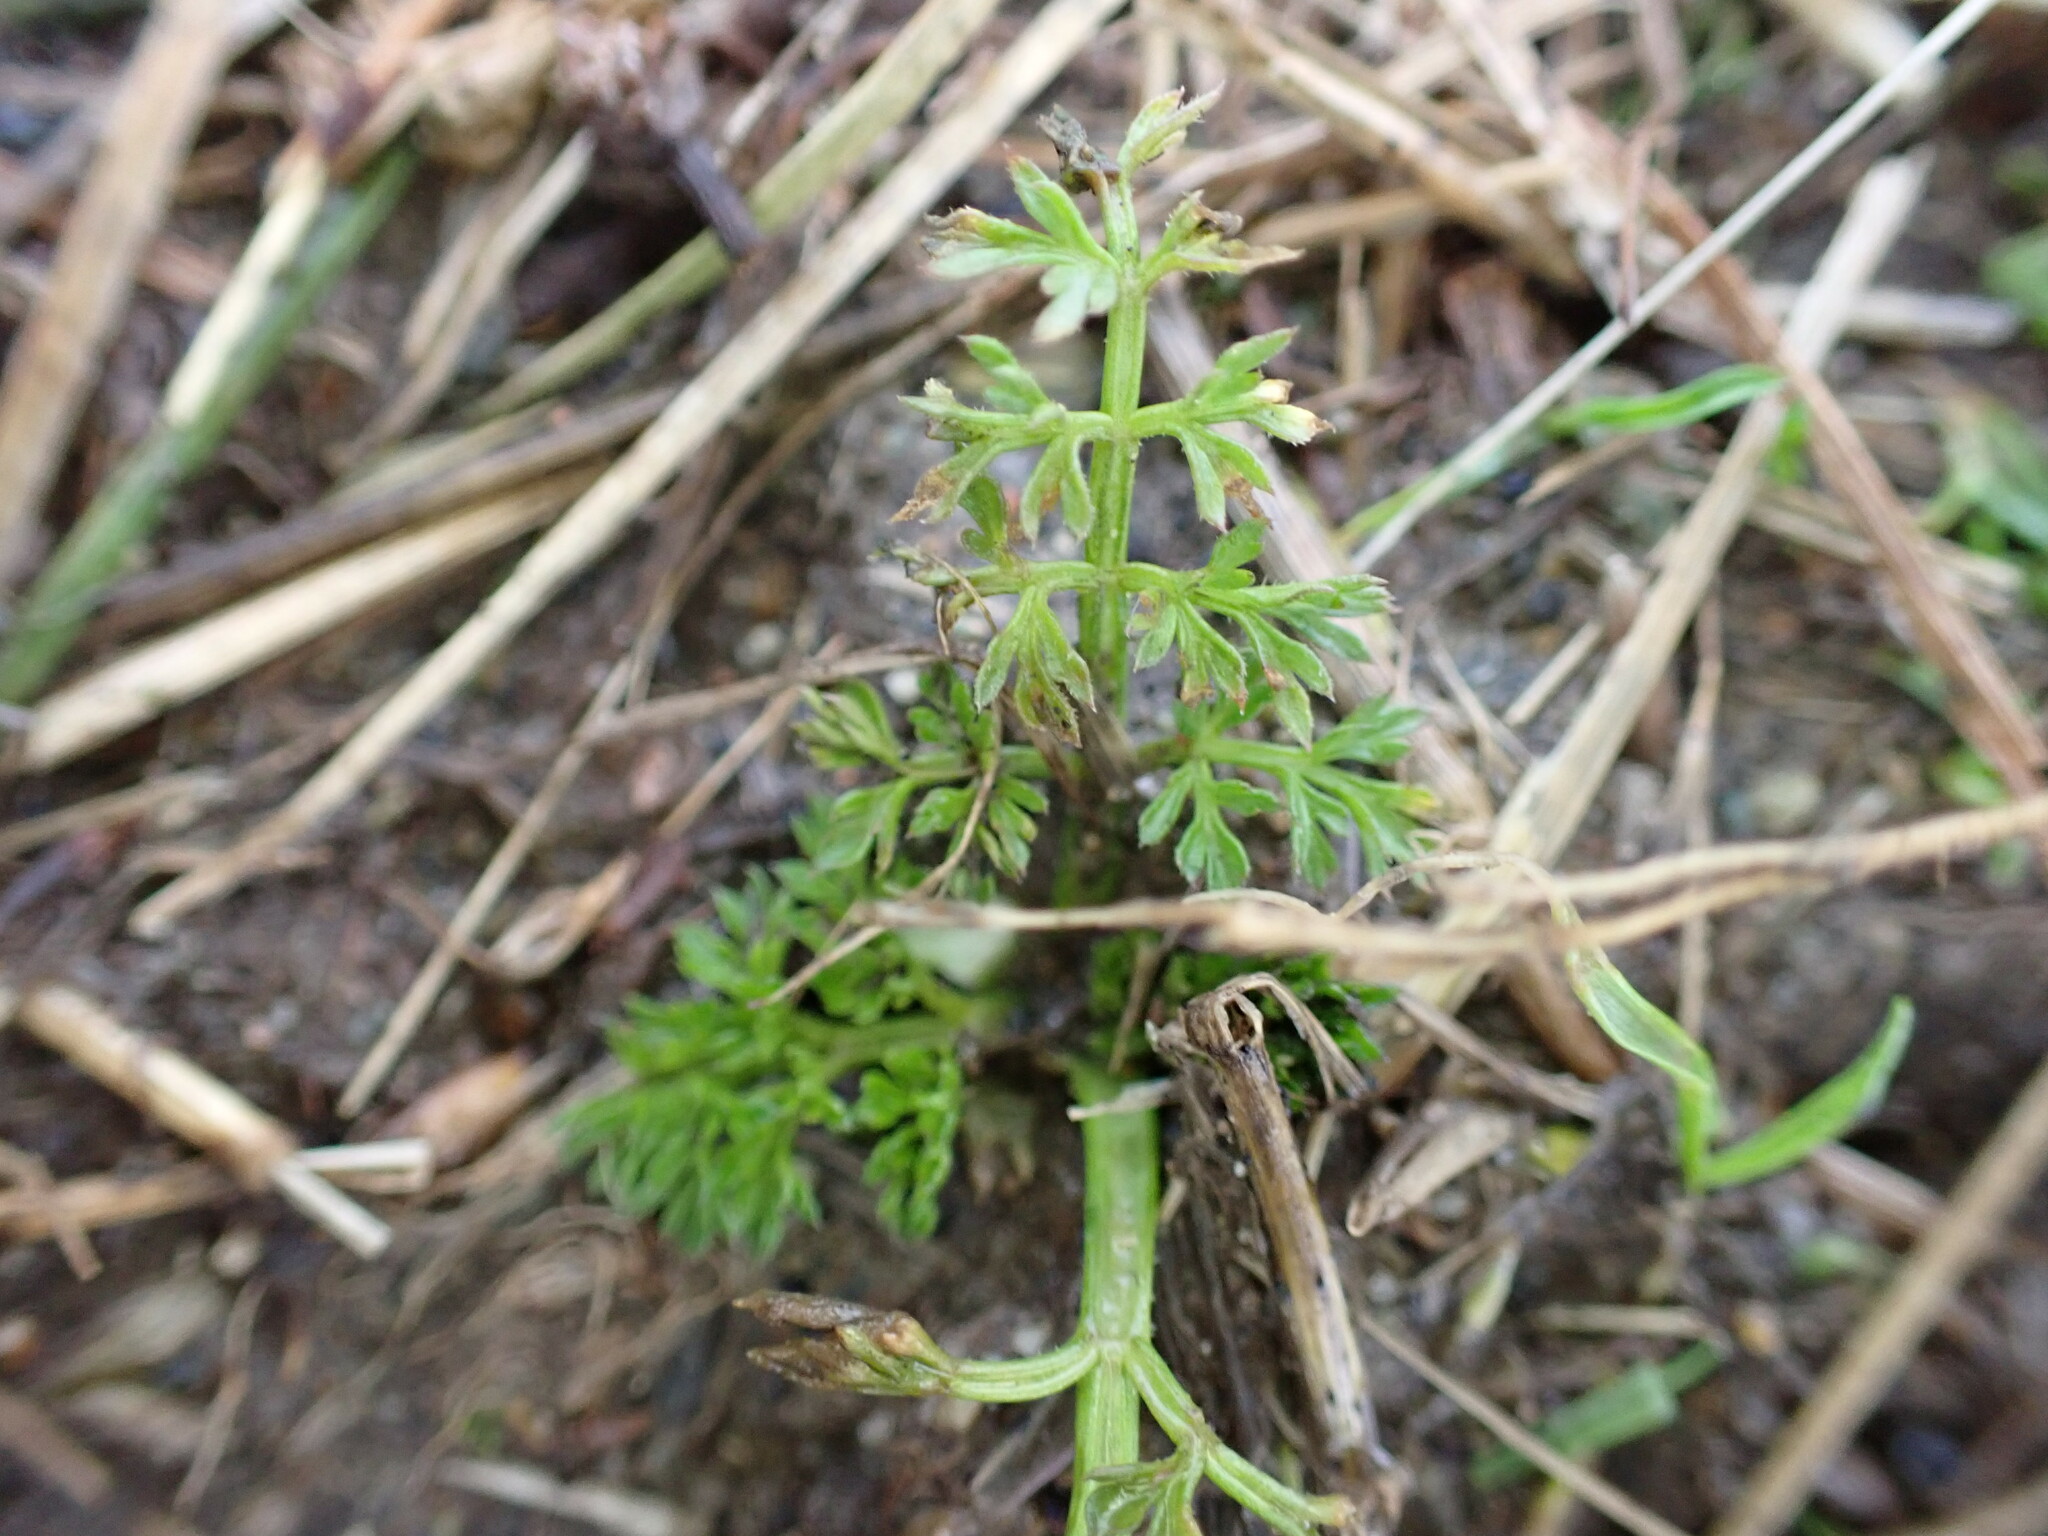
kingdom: Plantae
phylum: Tracheophyta
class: Magnoliopsida
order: Apiales
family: Apiaceae
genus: Daucus
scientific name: Daucus carota
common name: Wild carrot
